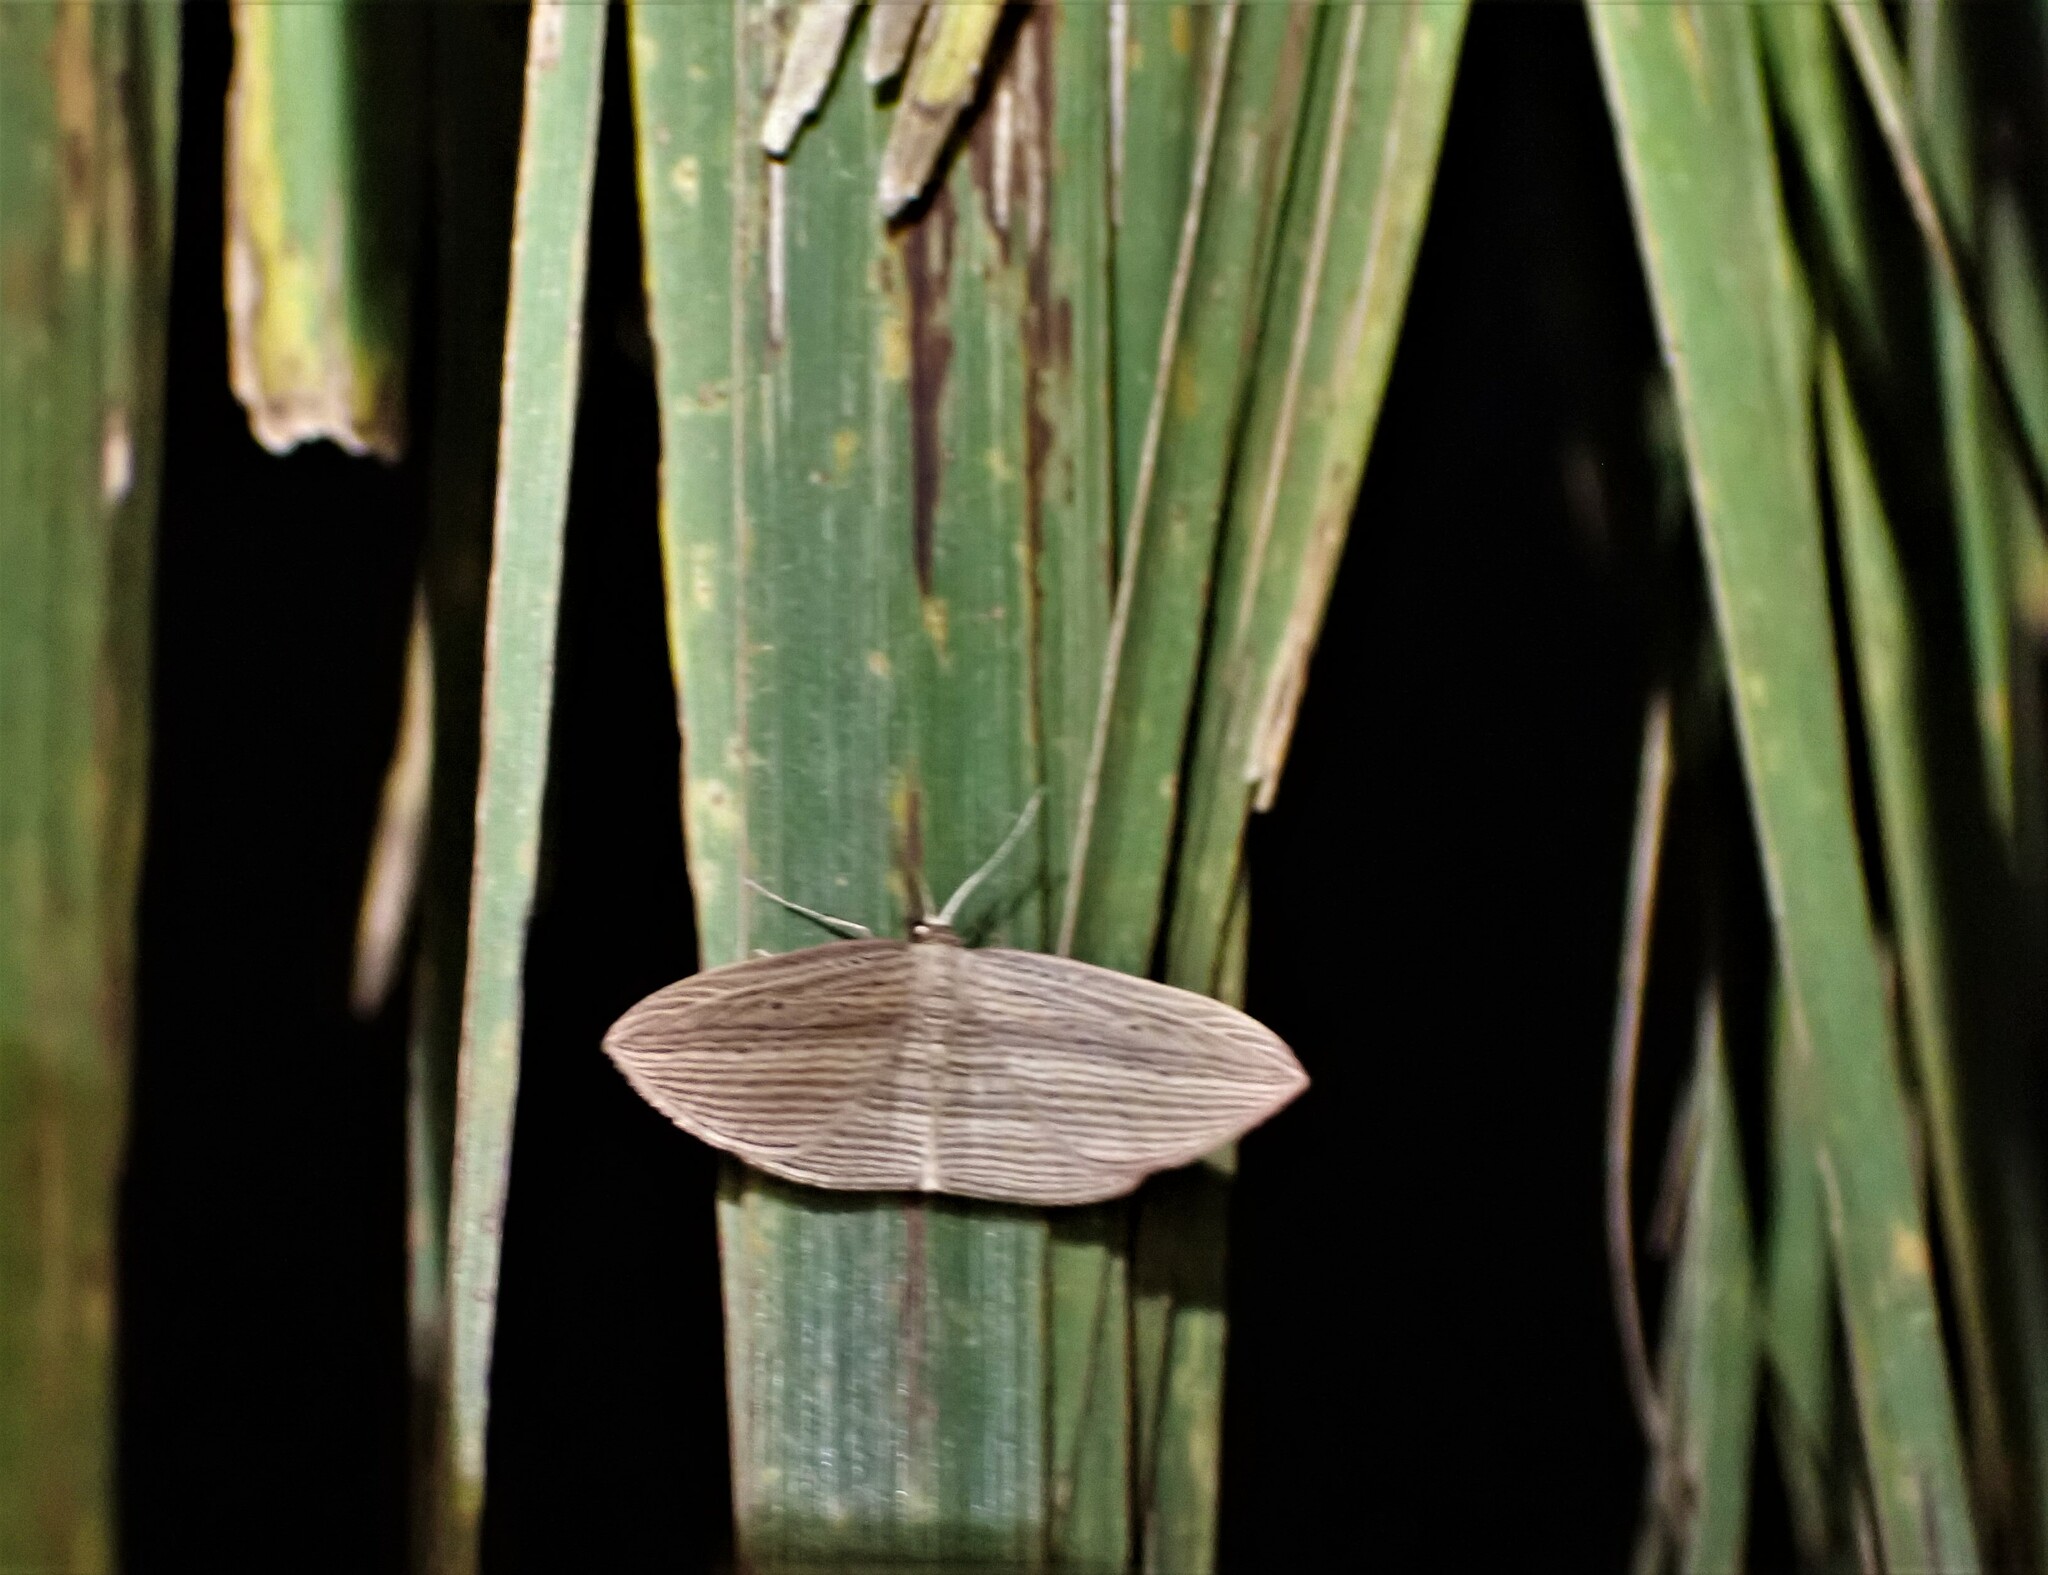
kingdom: Animalia
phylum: Arthropoda
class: Insecta
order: Lepidoptera
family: Geometridae
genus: Epiphryne
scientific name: Epiphryne verriculata
